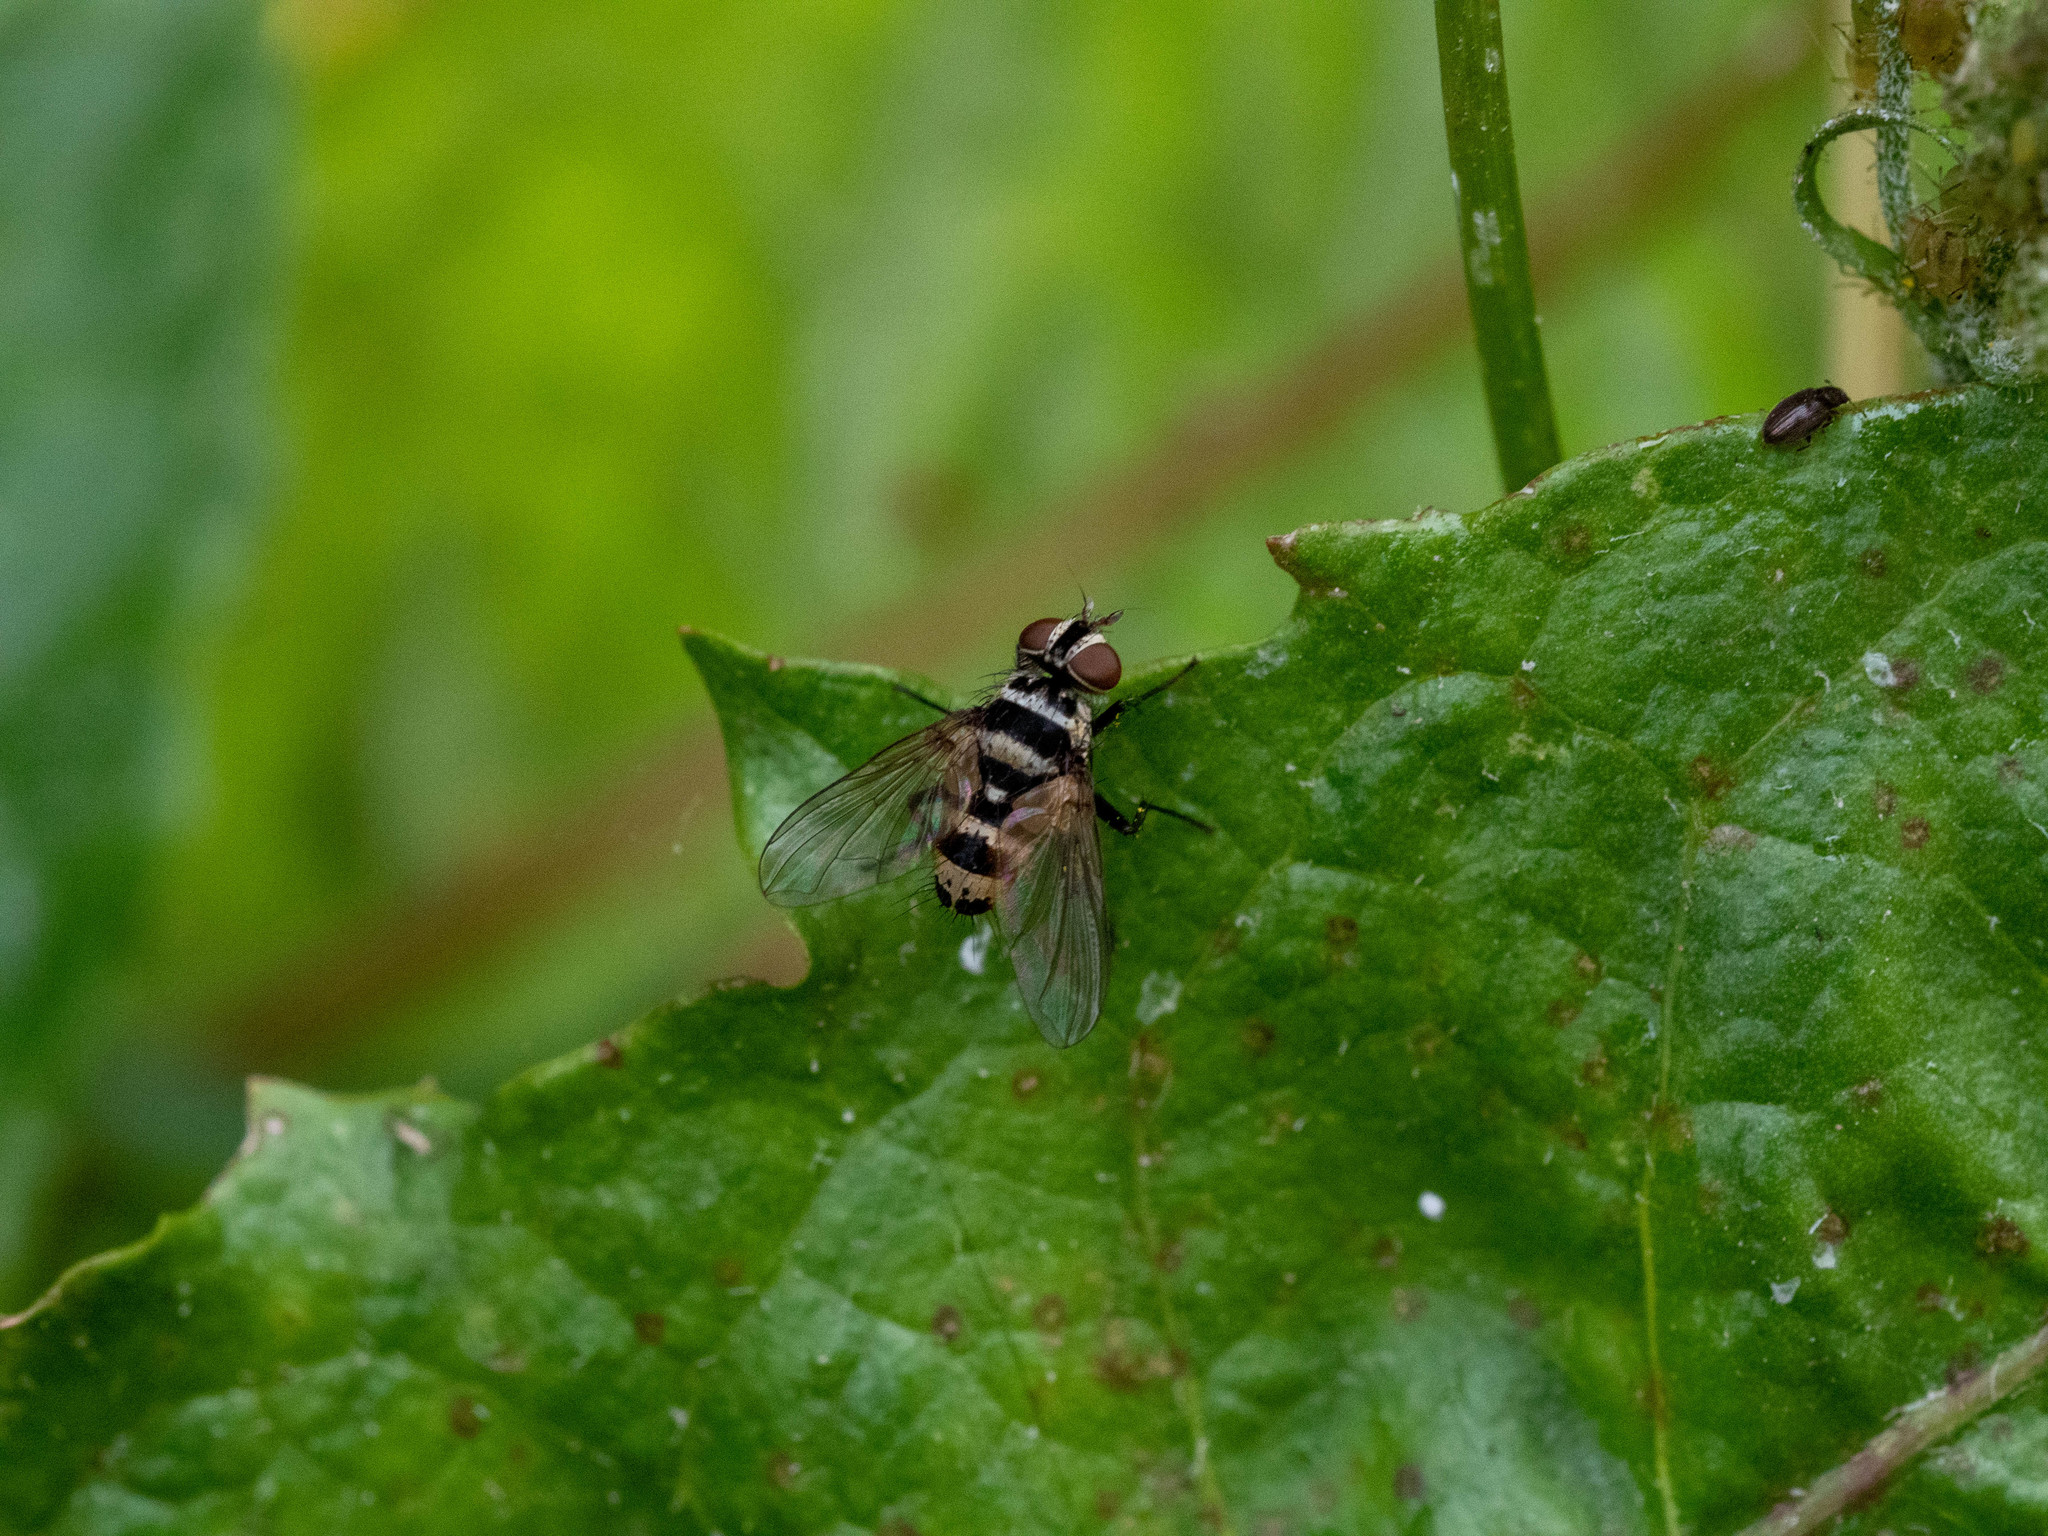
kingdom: Animalia
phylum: Arthropoda
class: Insecta
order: Diptera
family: Tachinidae
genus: Trigonospila
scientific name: Trigonospila brevifacies
